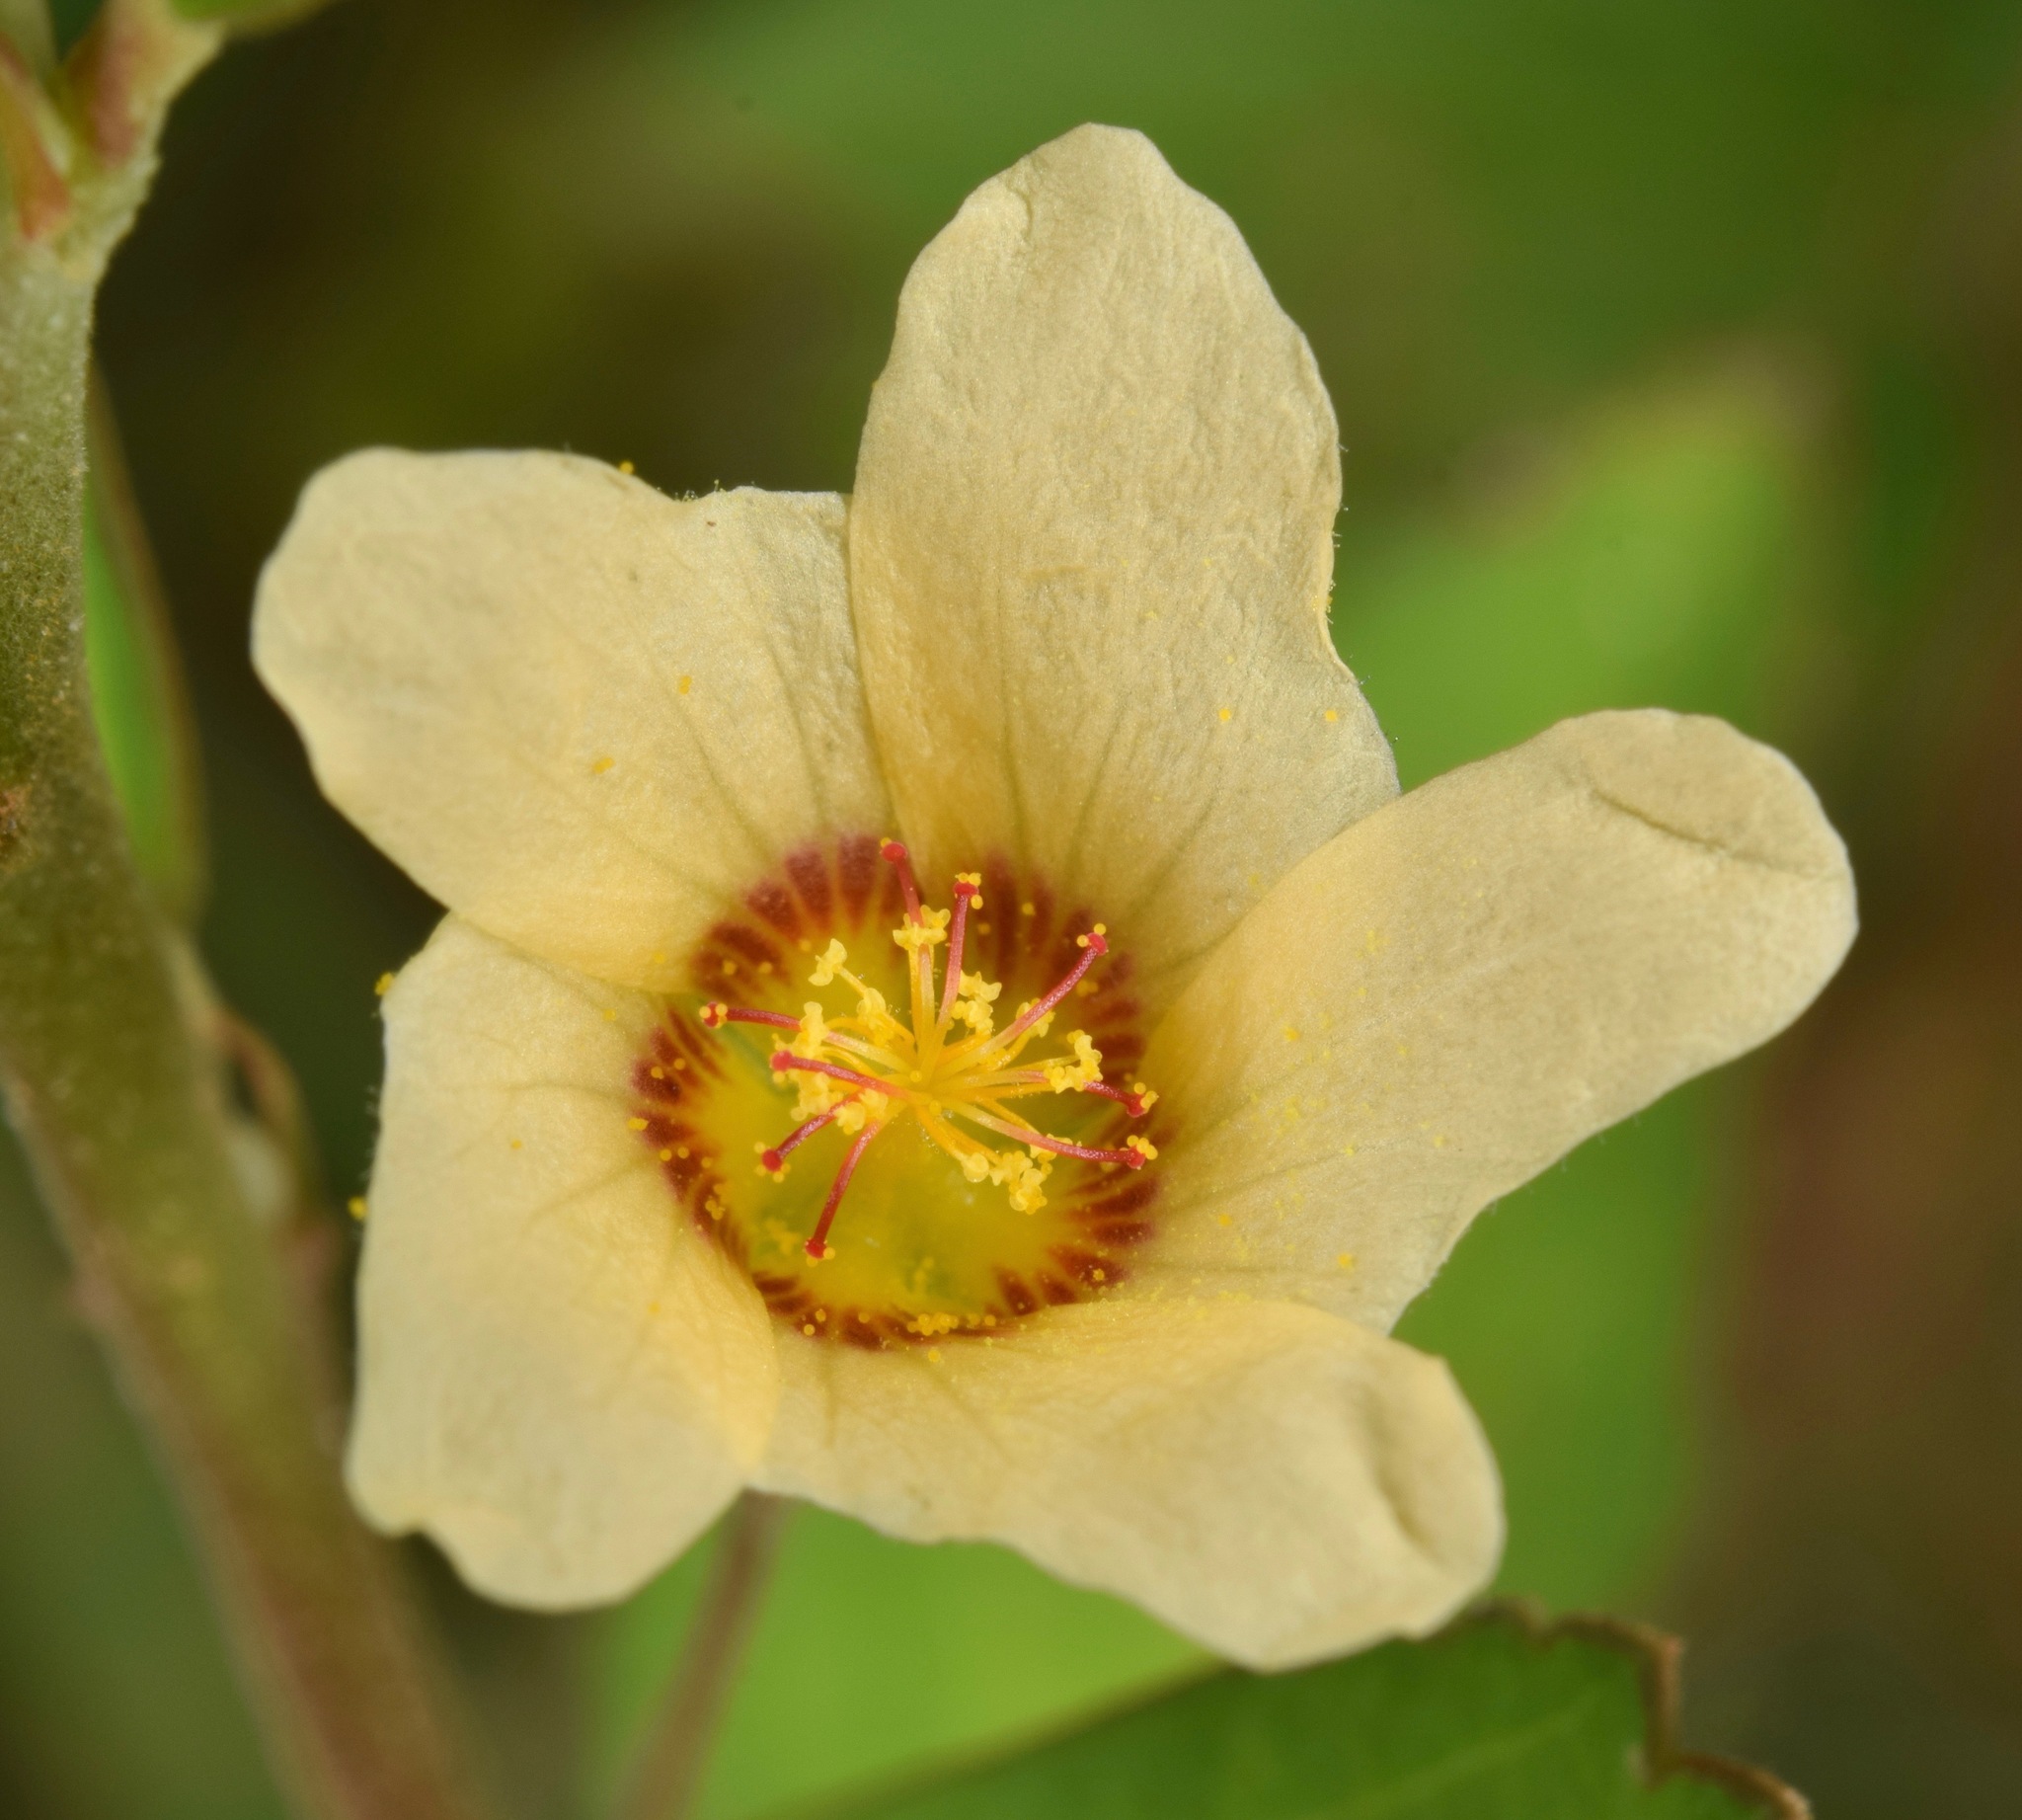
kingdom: Plantae
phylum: Tracheophyta
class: Magnoliopsida
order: Malvales
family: Malvaceae
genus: Sida
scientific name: Sida rhombifolia
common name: Queensland-hemp
